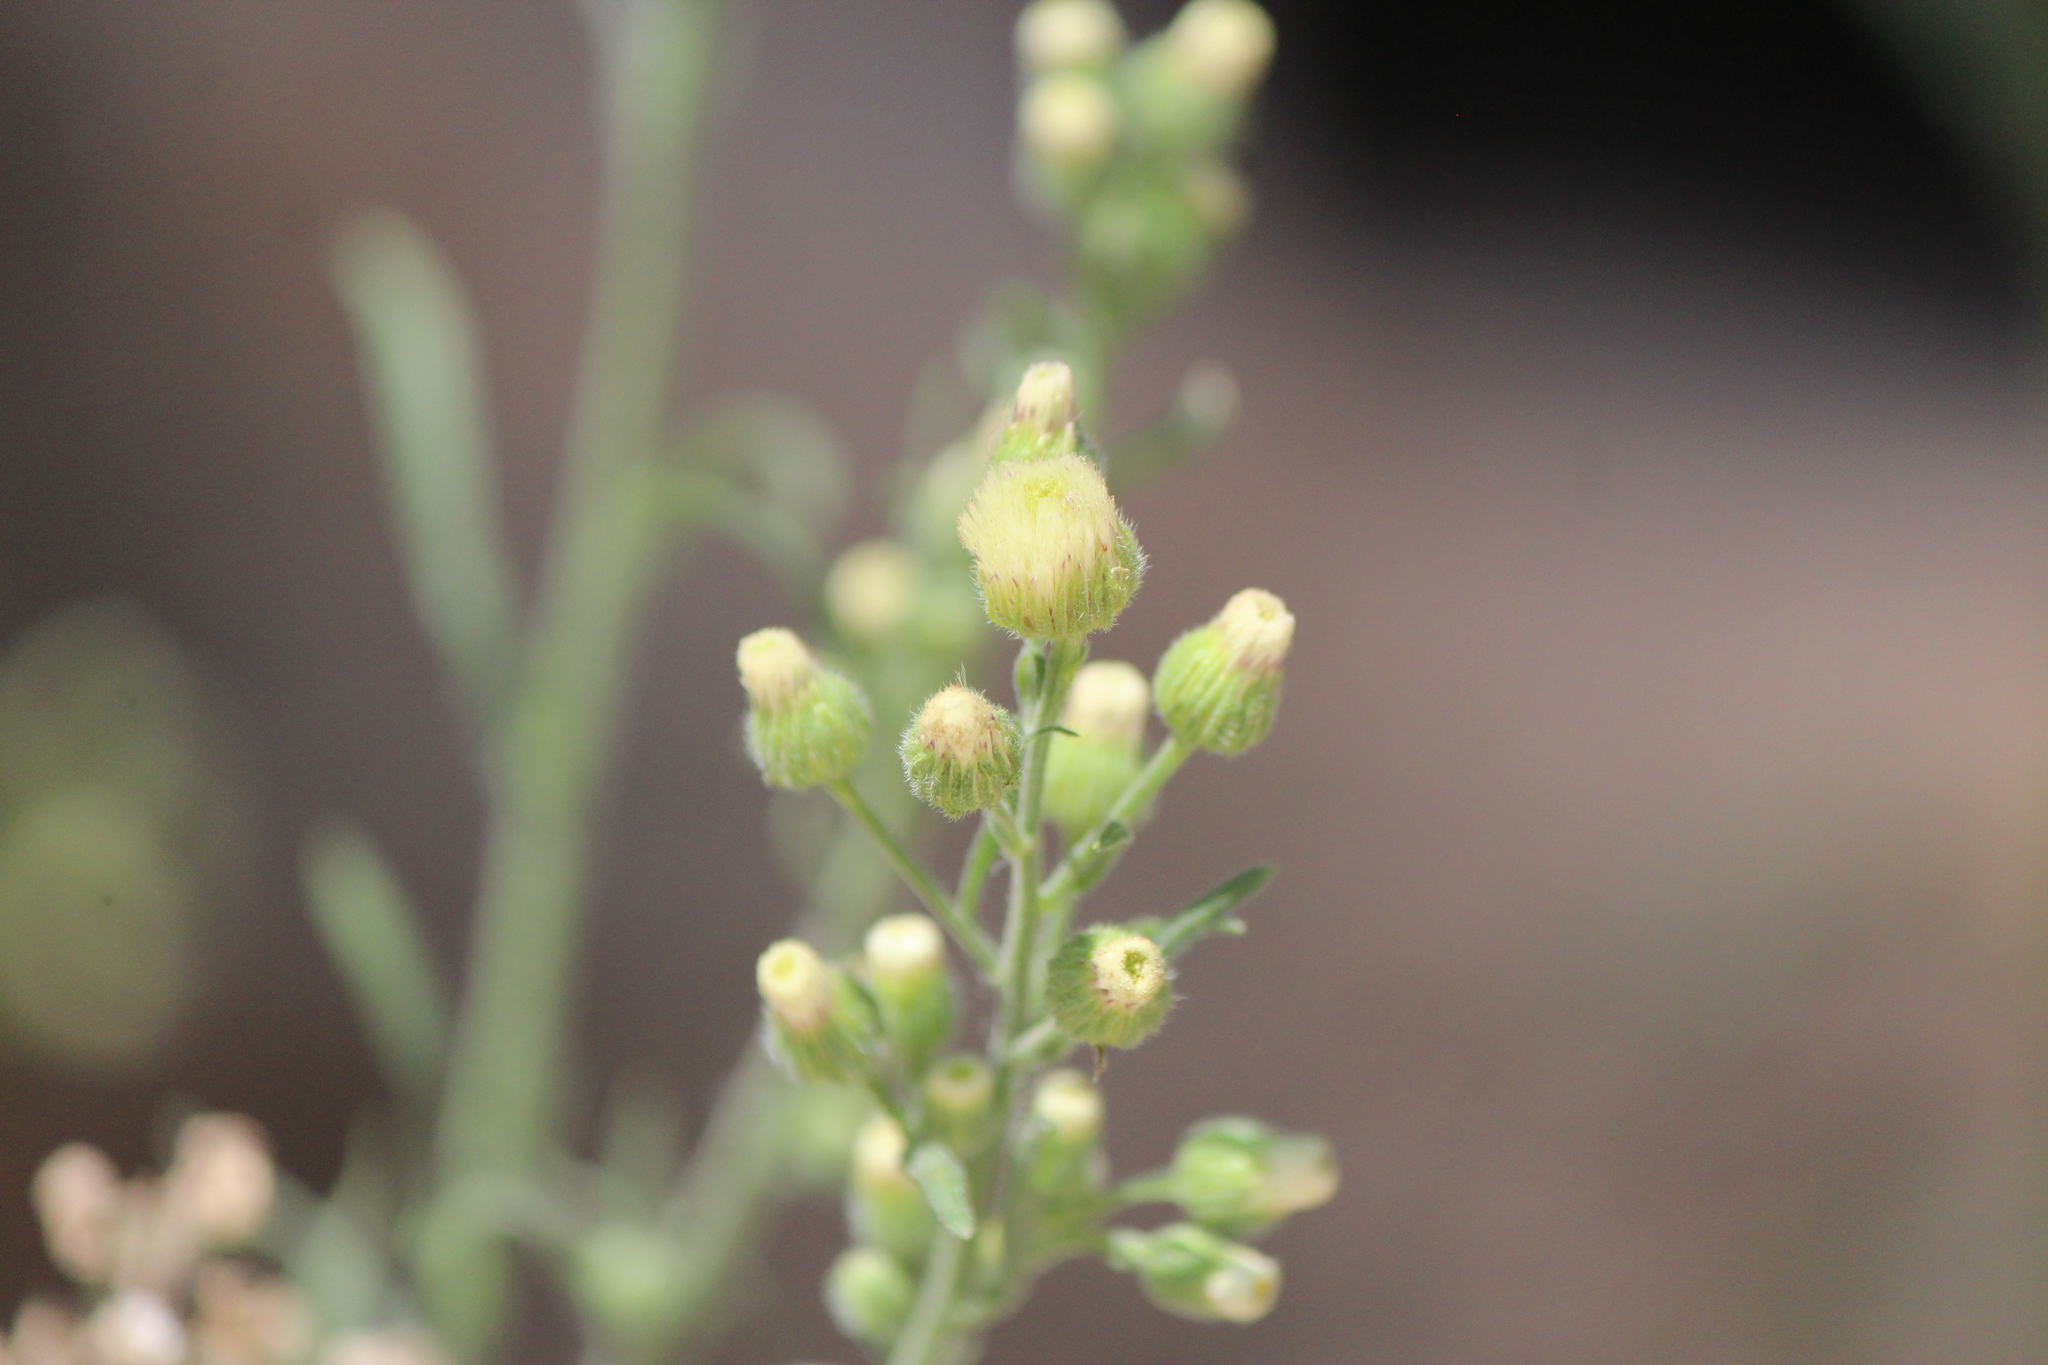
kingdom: Plantae
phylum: Tracheophyta
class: Magnoliopsida
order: Asterales
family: Asteraceae
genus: Erigeron
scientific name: Erigeron bonariensis
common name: Argentine fleabane
